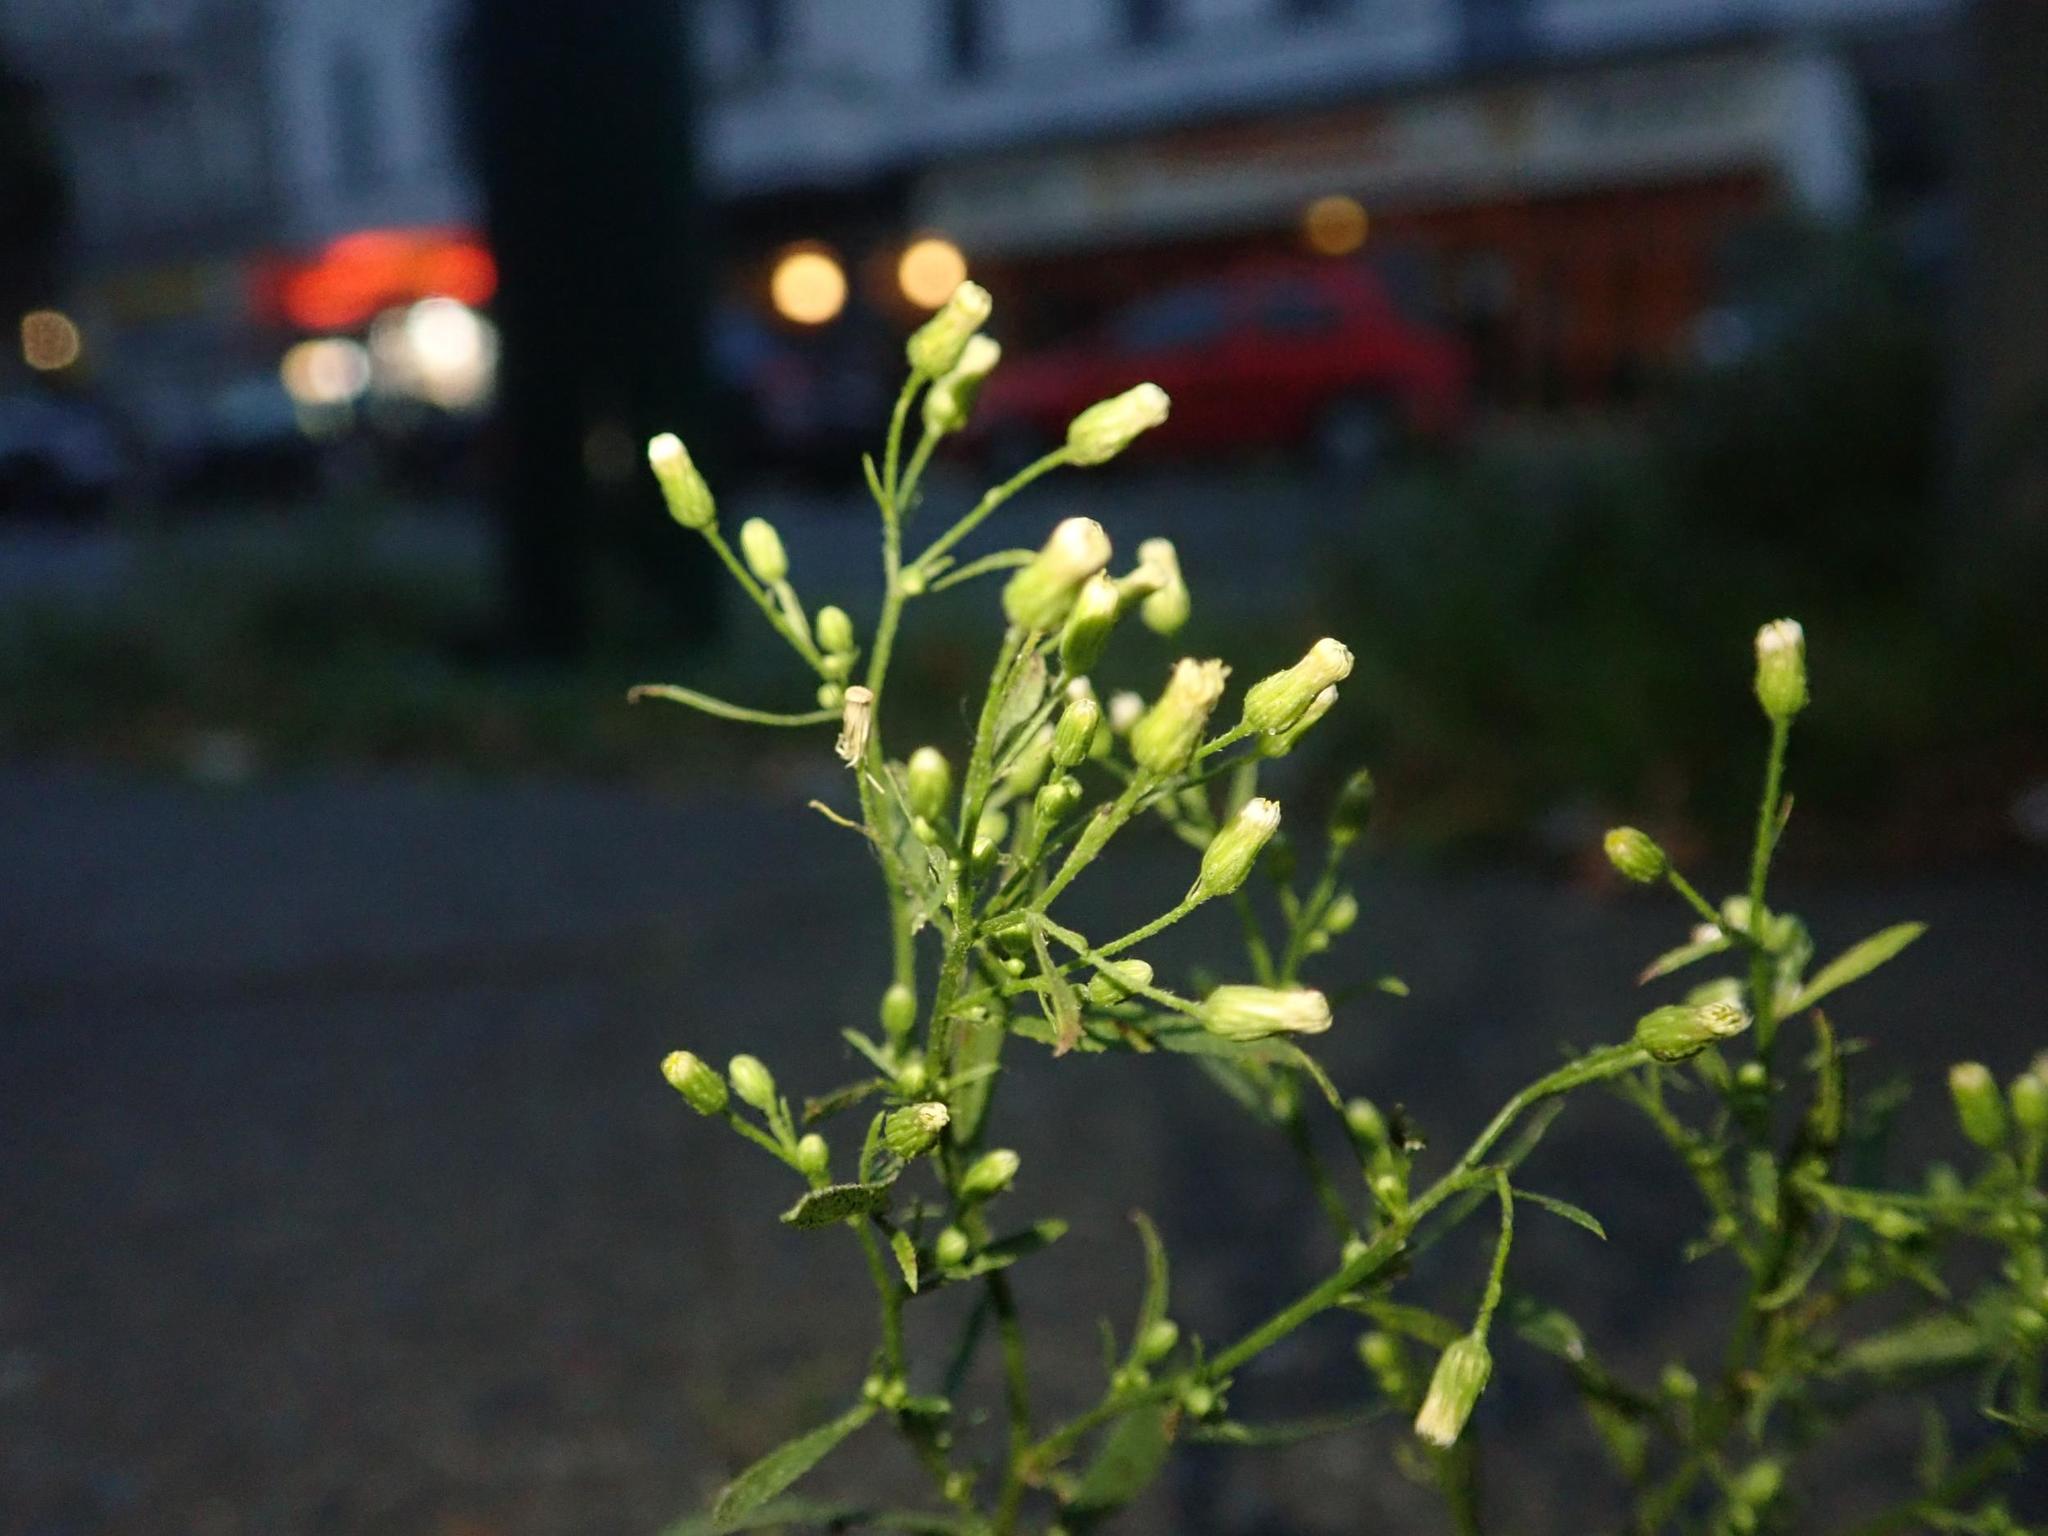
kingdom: Plantae
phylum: Tracheophyta
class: Magnoliopsida
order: Asterales
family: Asteraceae
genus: Erigeron
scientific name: Erigeron canadensis
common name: Canadian fleabane
